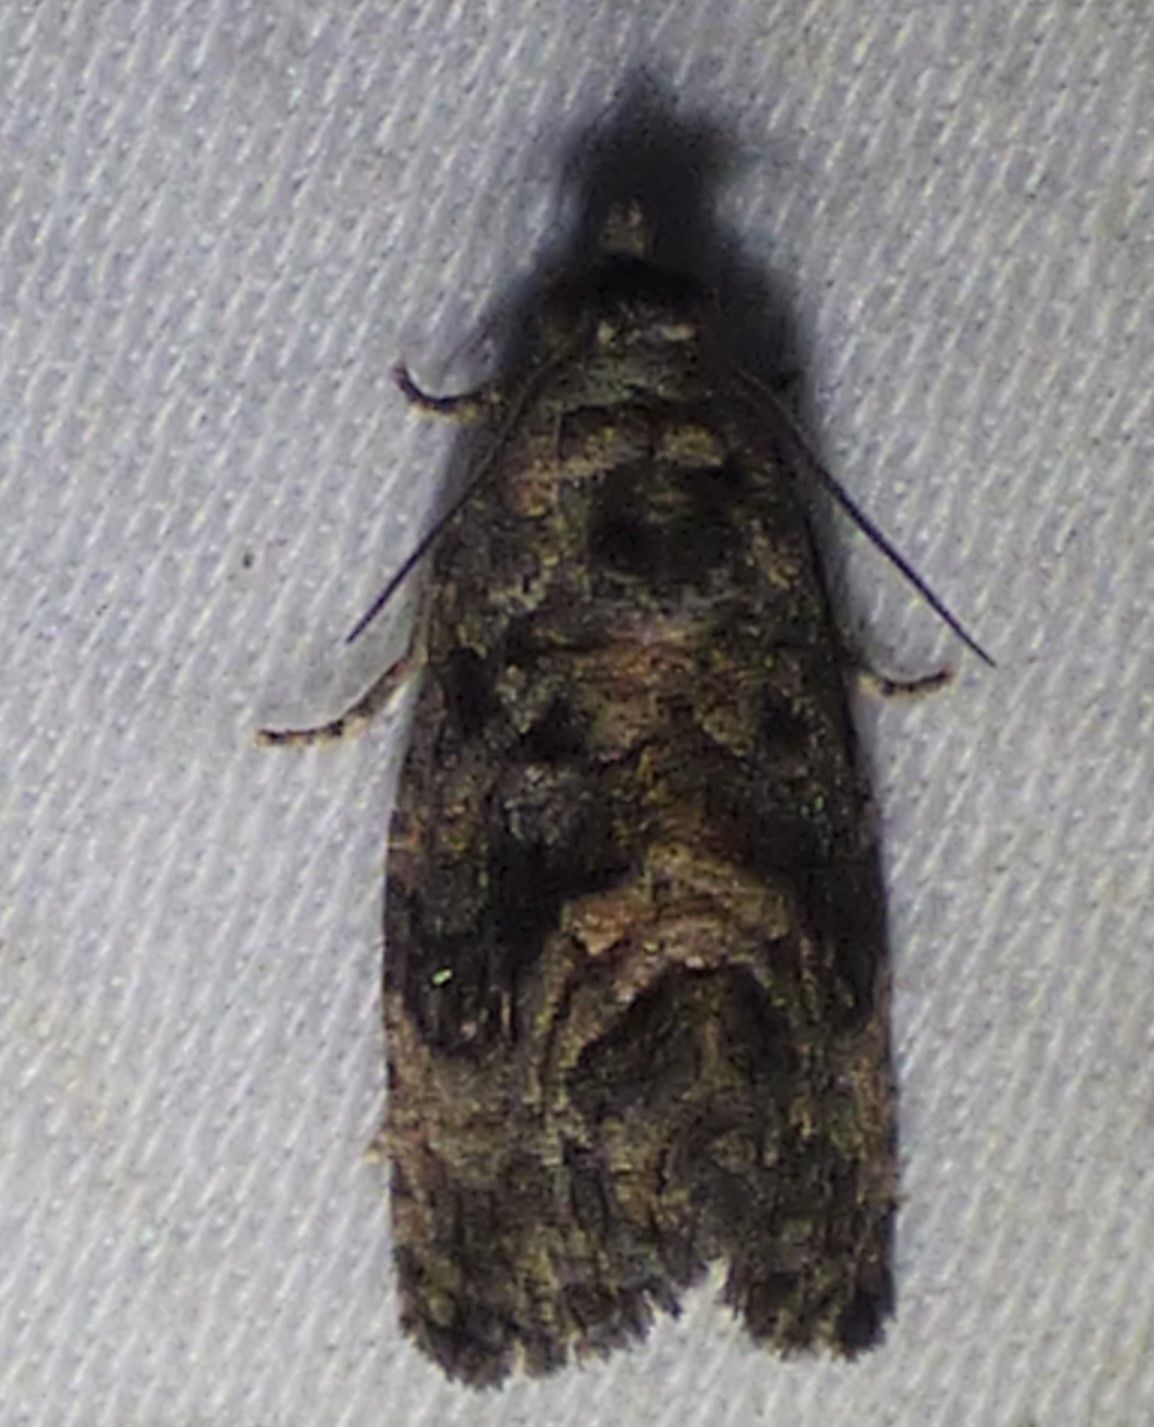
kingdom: Animalia
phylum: Arthropoda
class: Insecta
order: Lepidoptera
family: Tortricidae
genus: Gymnandrosoma
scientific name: Gymnandrosoma punctidiscanum
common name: Dotted ecdytolopha moth
